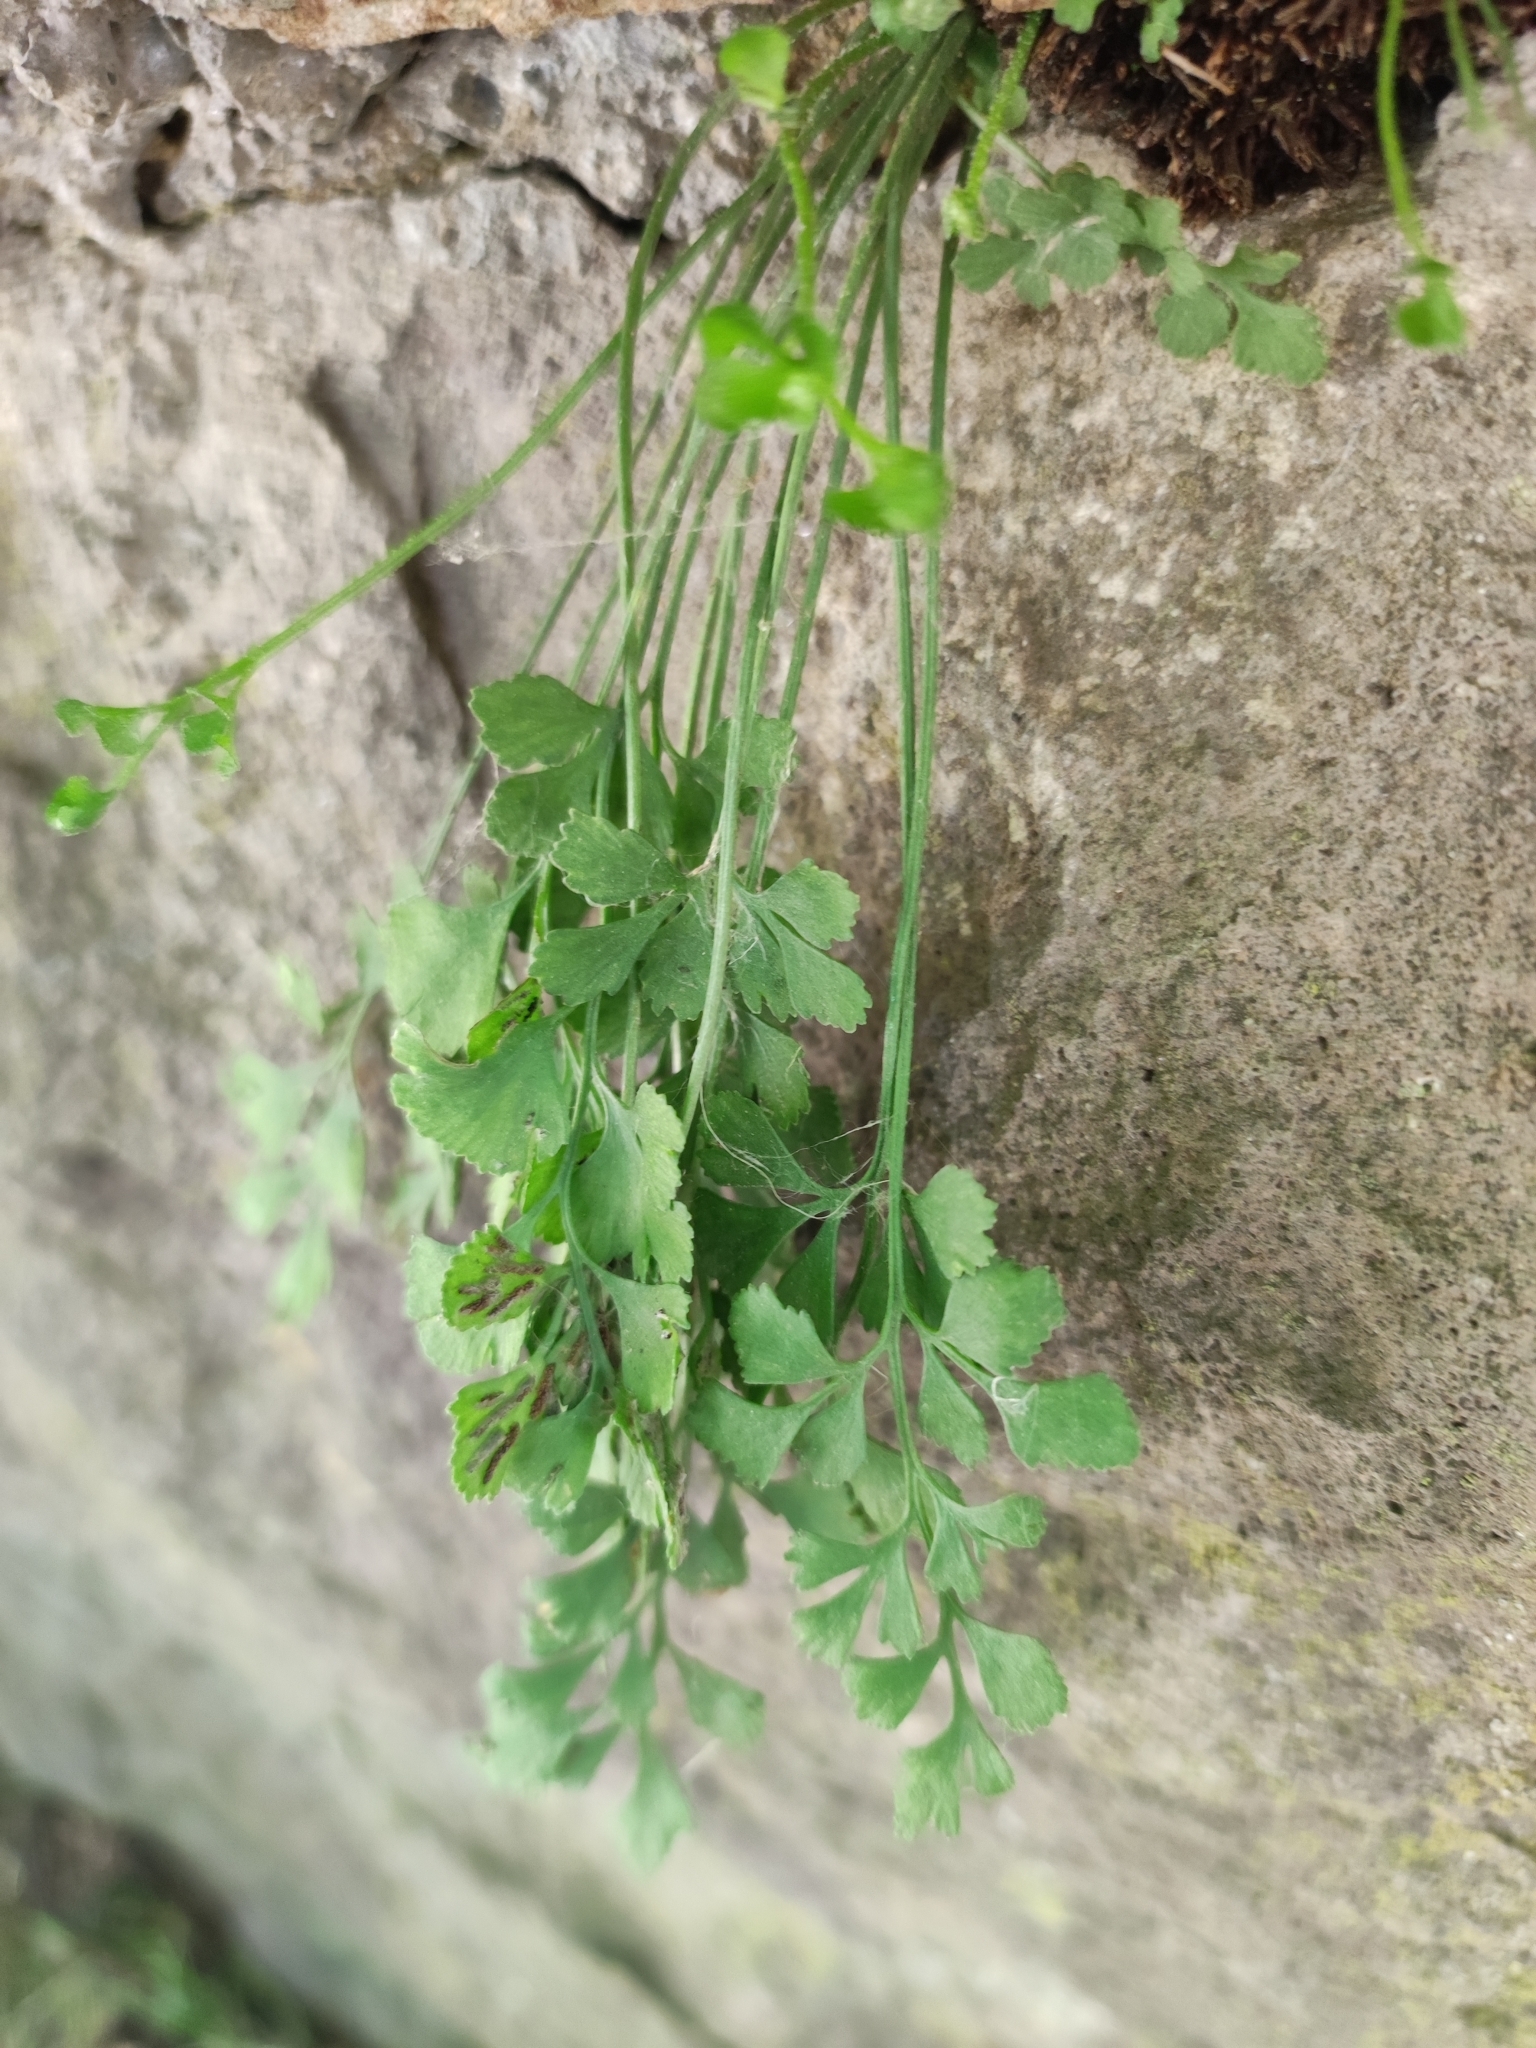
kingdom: Plantae
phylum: Tracheophyta
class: Polypodiopsida
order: Polypodiales
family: Aspleniaceae
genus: Asplenium
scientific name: Asplenium ruta-muraria
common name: Wall-rue
